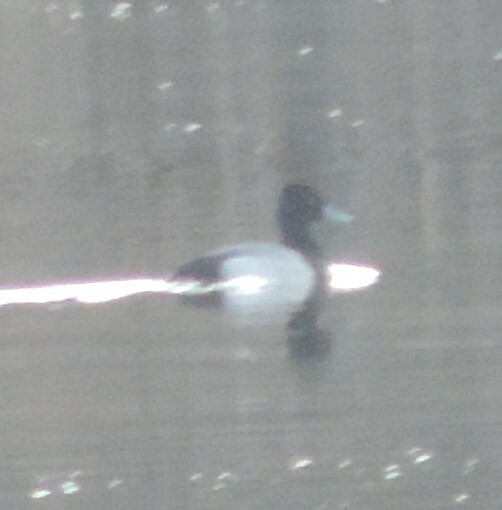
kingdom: Animalia
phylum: Chordata
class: Aves
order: Anseriformes
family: Anatidae
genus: Aythya
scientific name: Aythya affinis
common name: Lesser scaup
